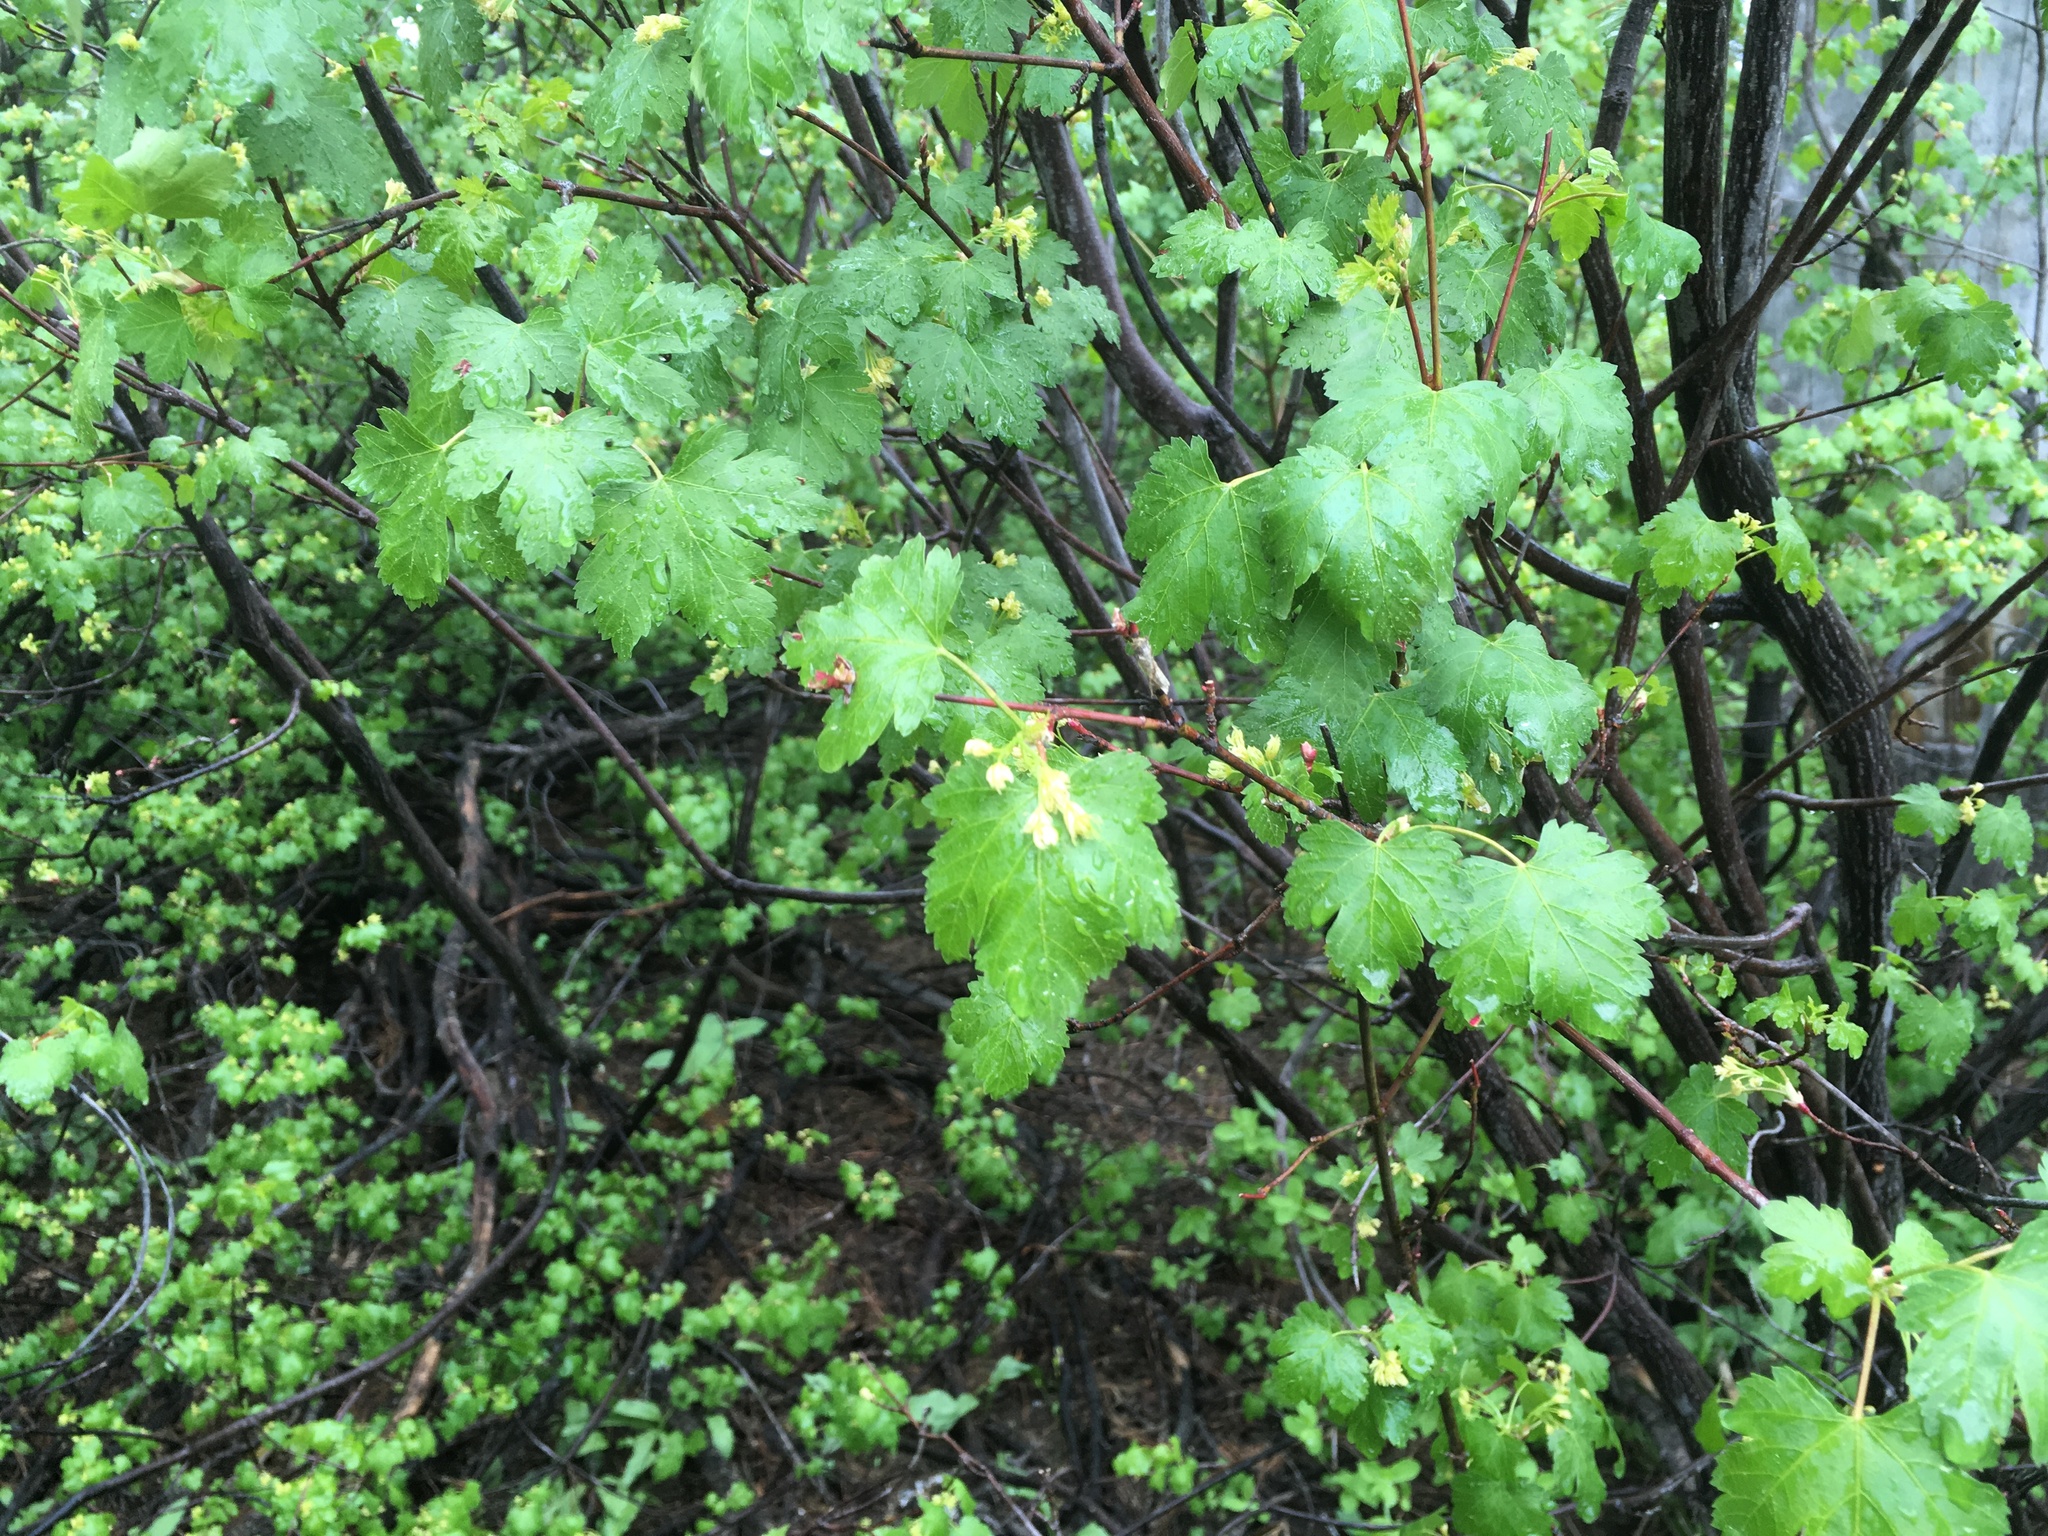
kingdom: Plantae
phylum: Tracheophyta
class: Magnoliopsida
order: Sapindales
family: Sapindaceae
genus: Acer
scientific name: Acer glabrum
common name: Rocky mountain maple
